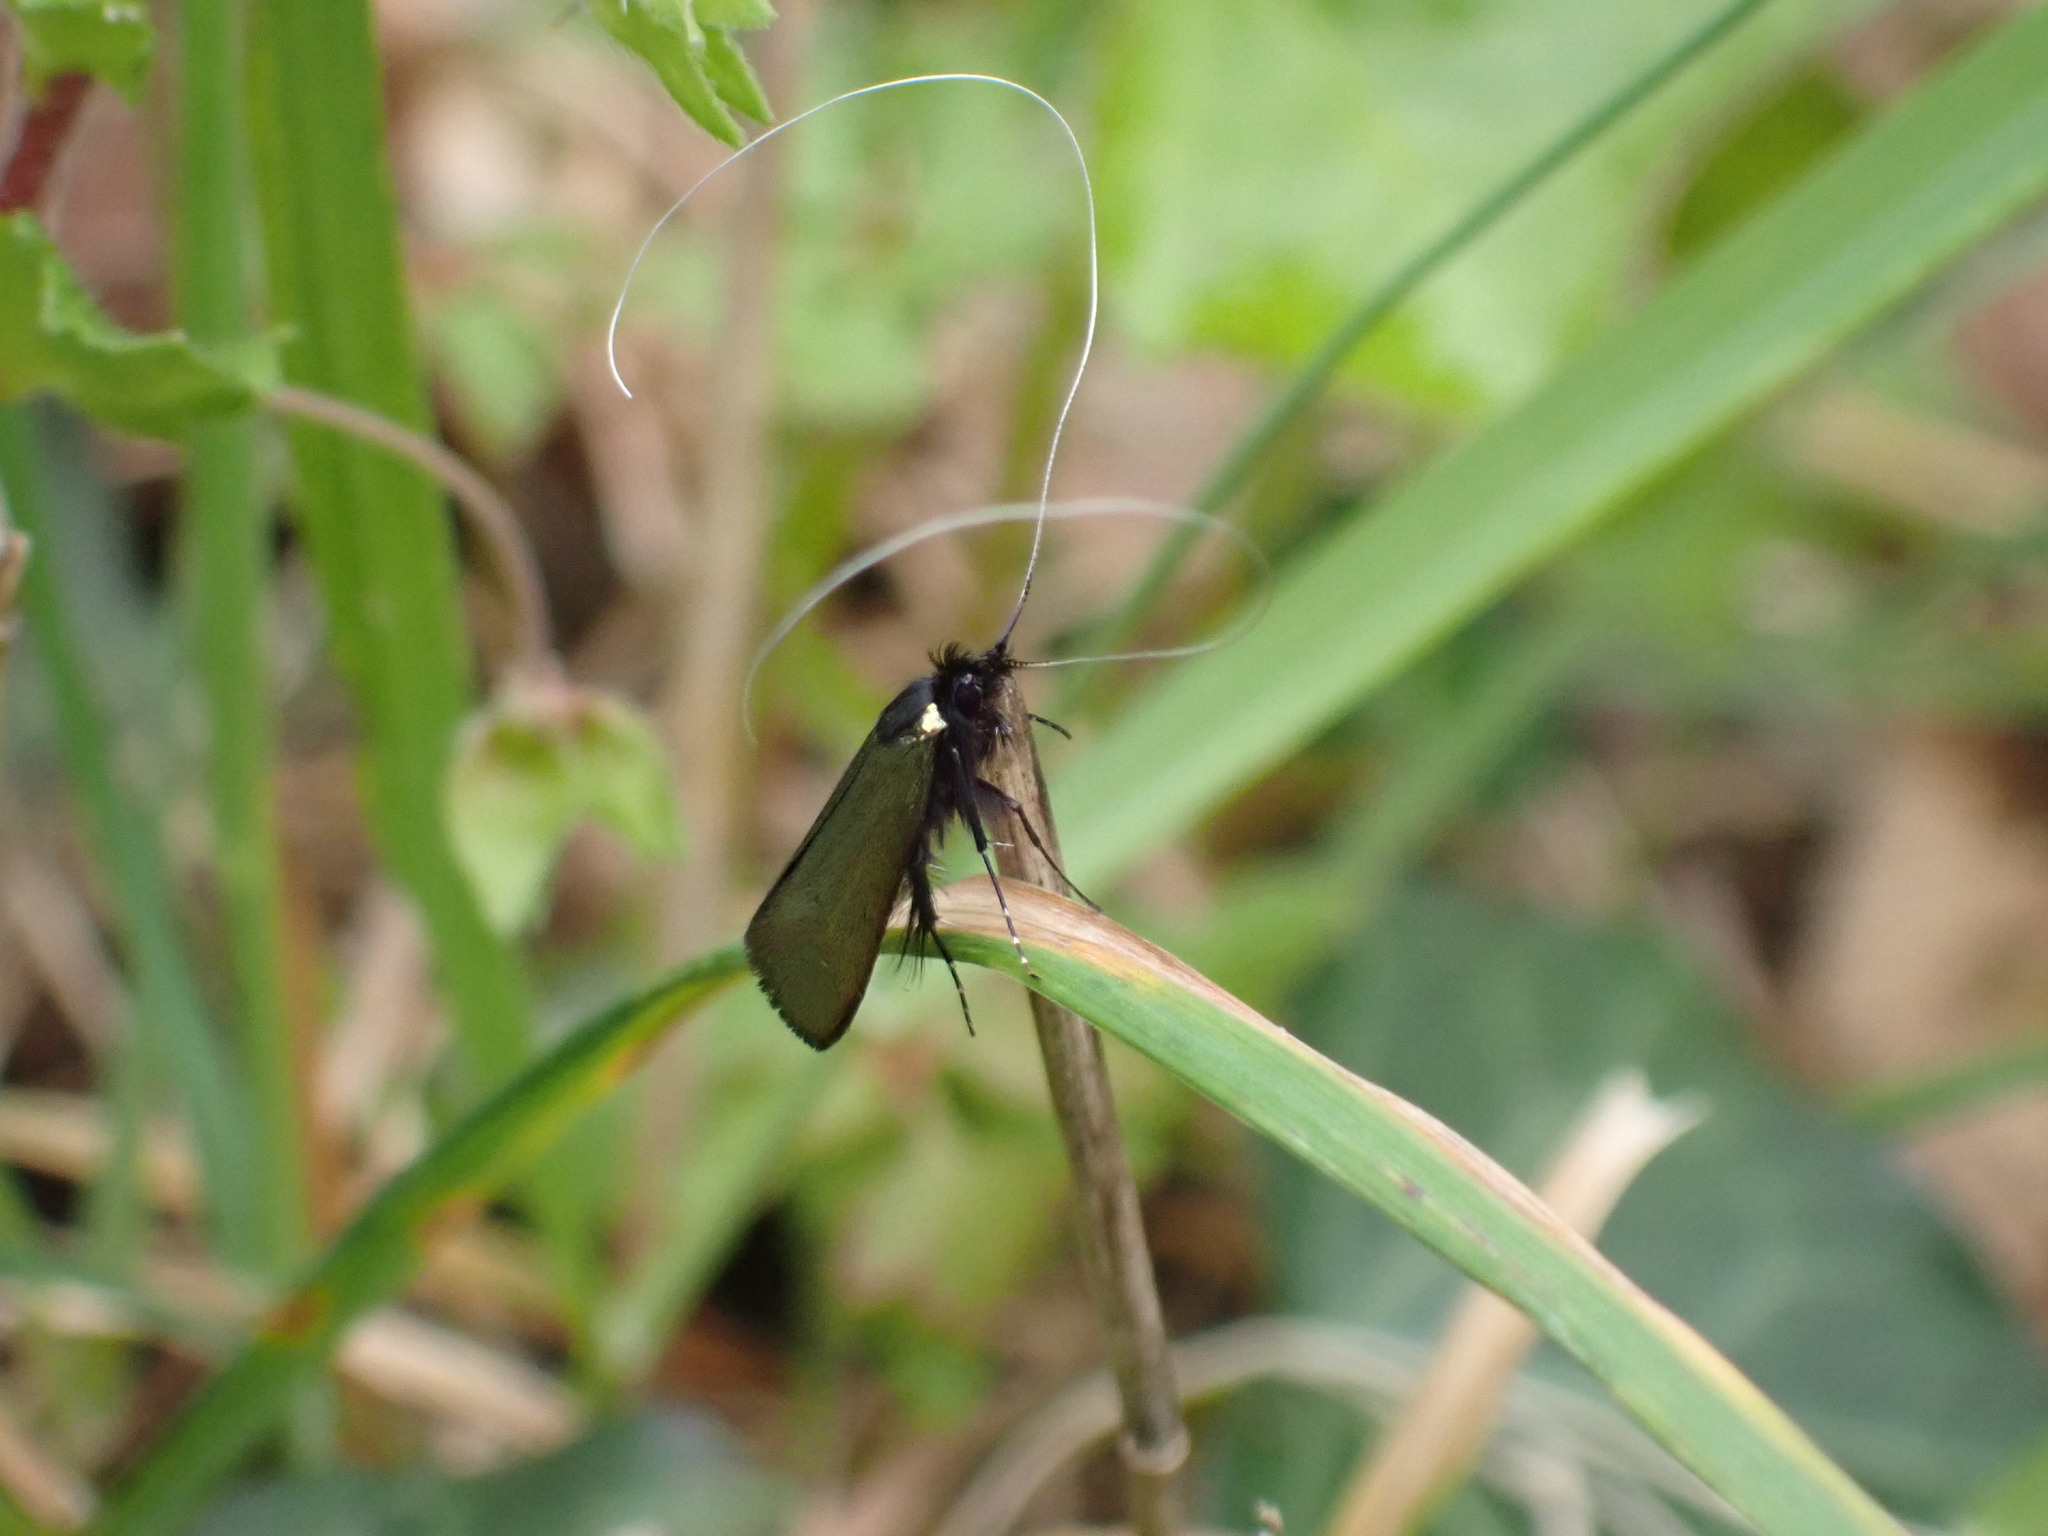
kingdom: Animalia
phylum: Arthropoda
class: Insecta
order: Lepidoptera
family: Adelidae
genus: Adela
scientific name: Adela viridella
